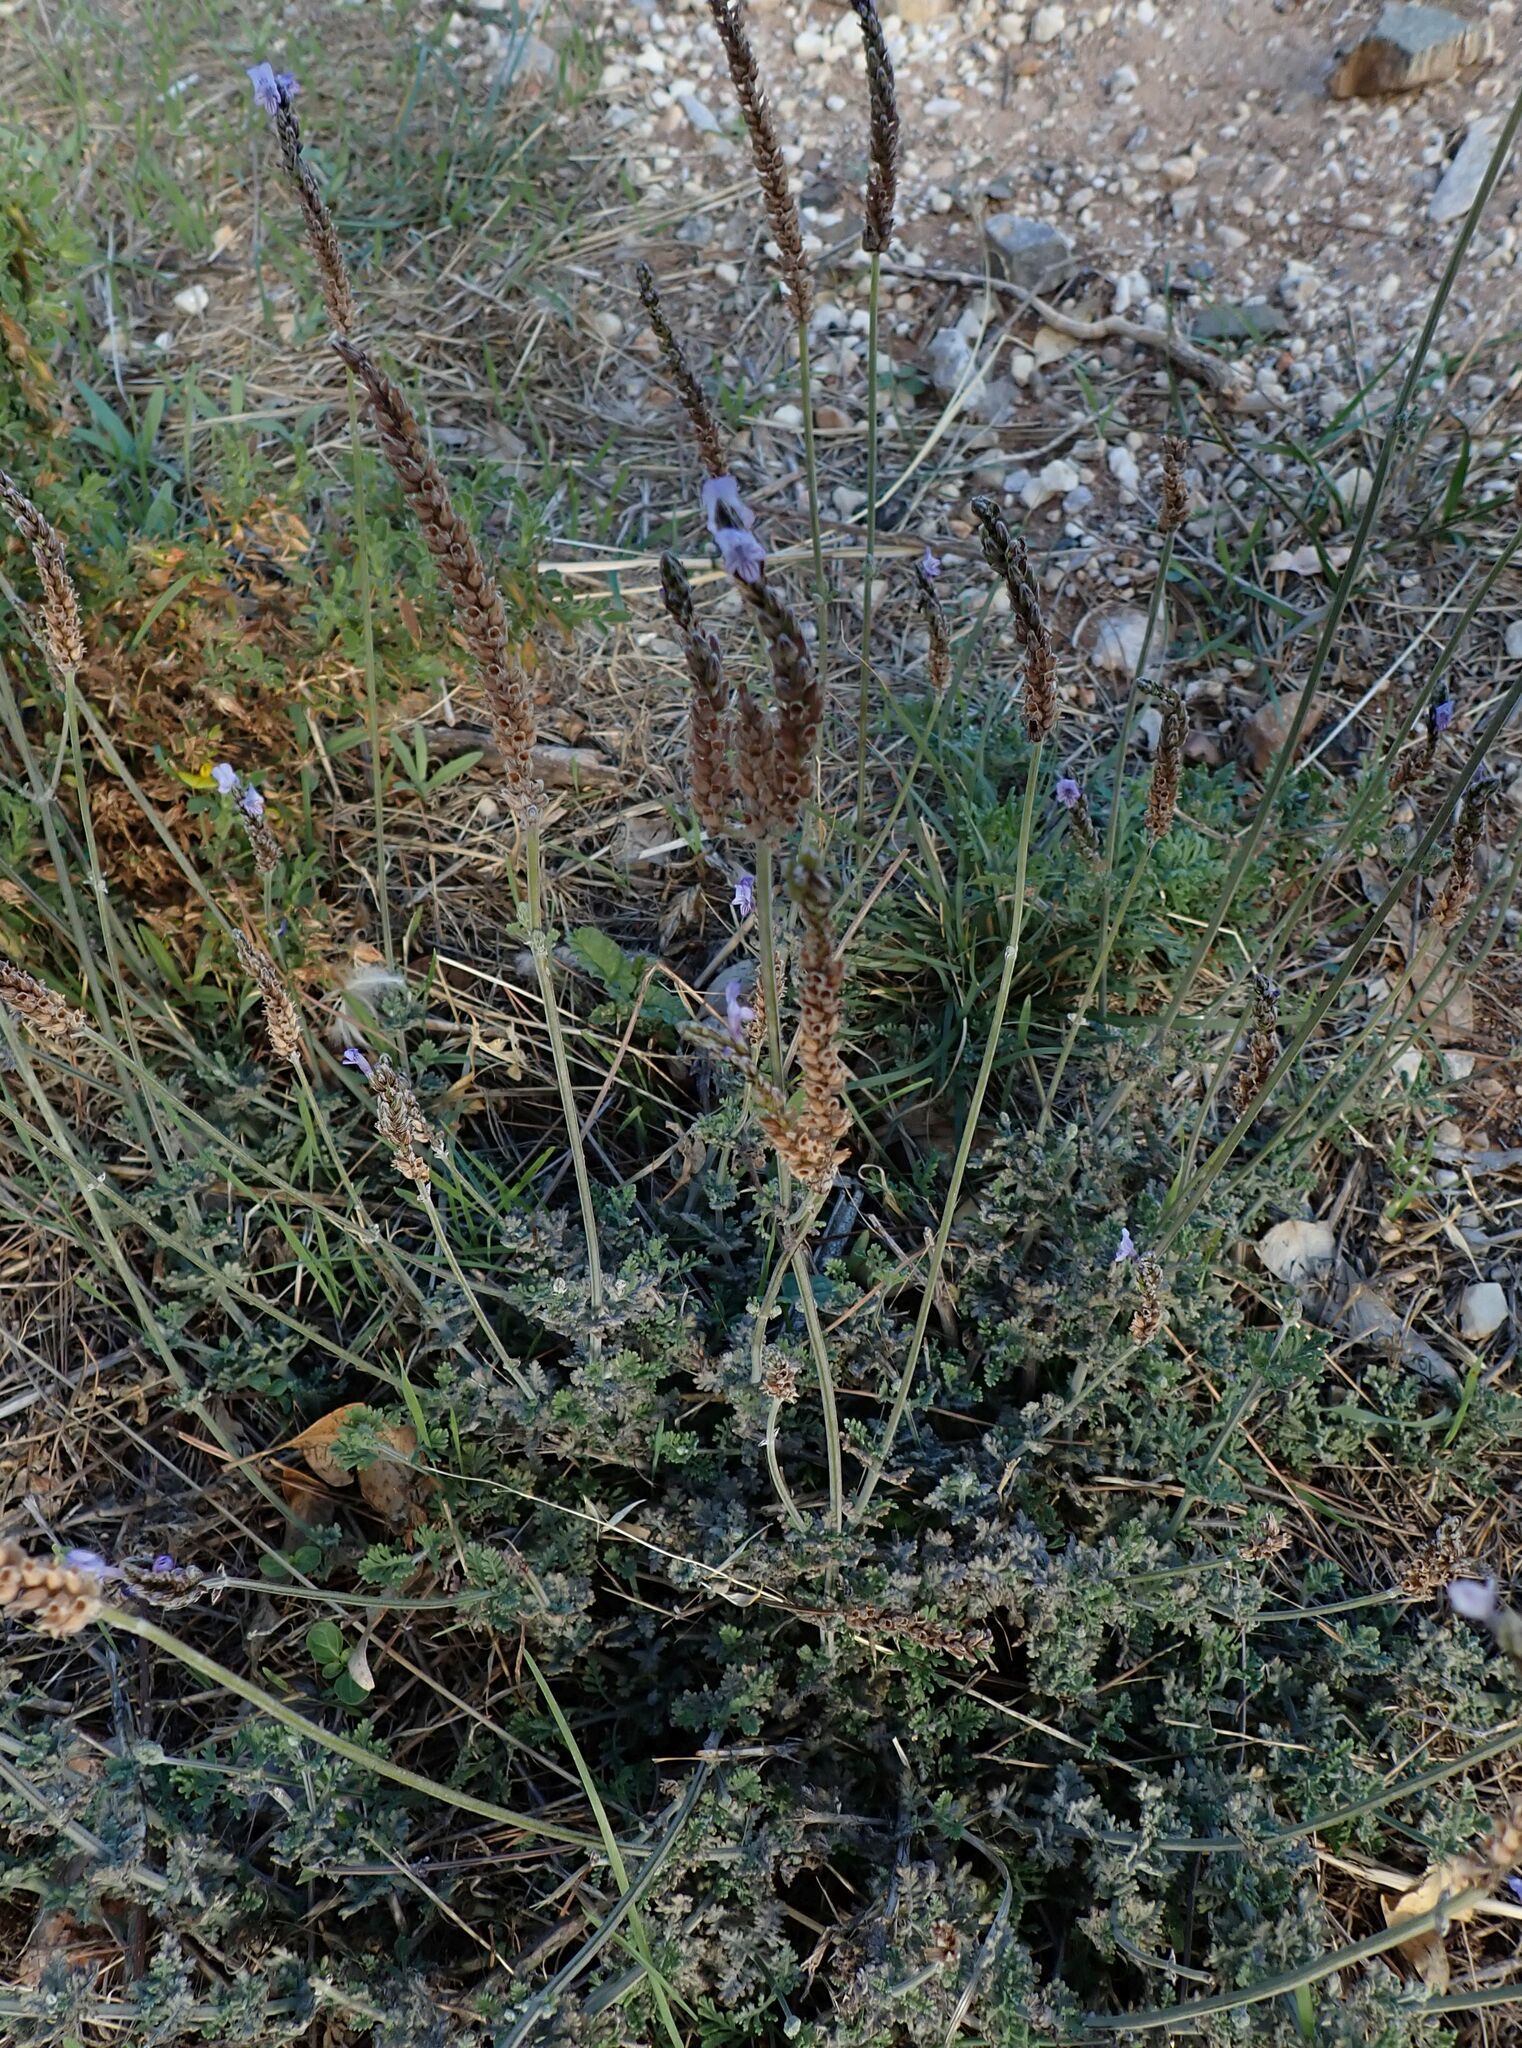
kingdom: Plantae
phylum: Tracheophyta
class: Magnoliopsida
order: Lamiales
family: Lamiaceae
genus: Lavandula
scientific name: Lavandula multifida
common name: Fern-leaf lavender
